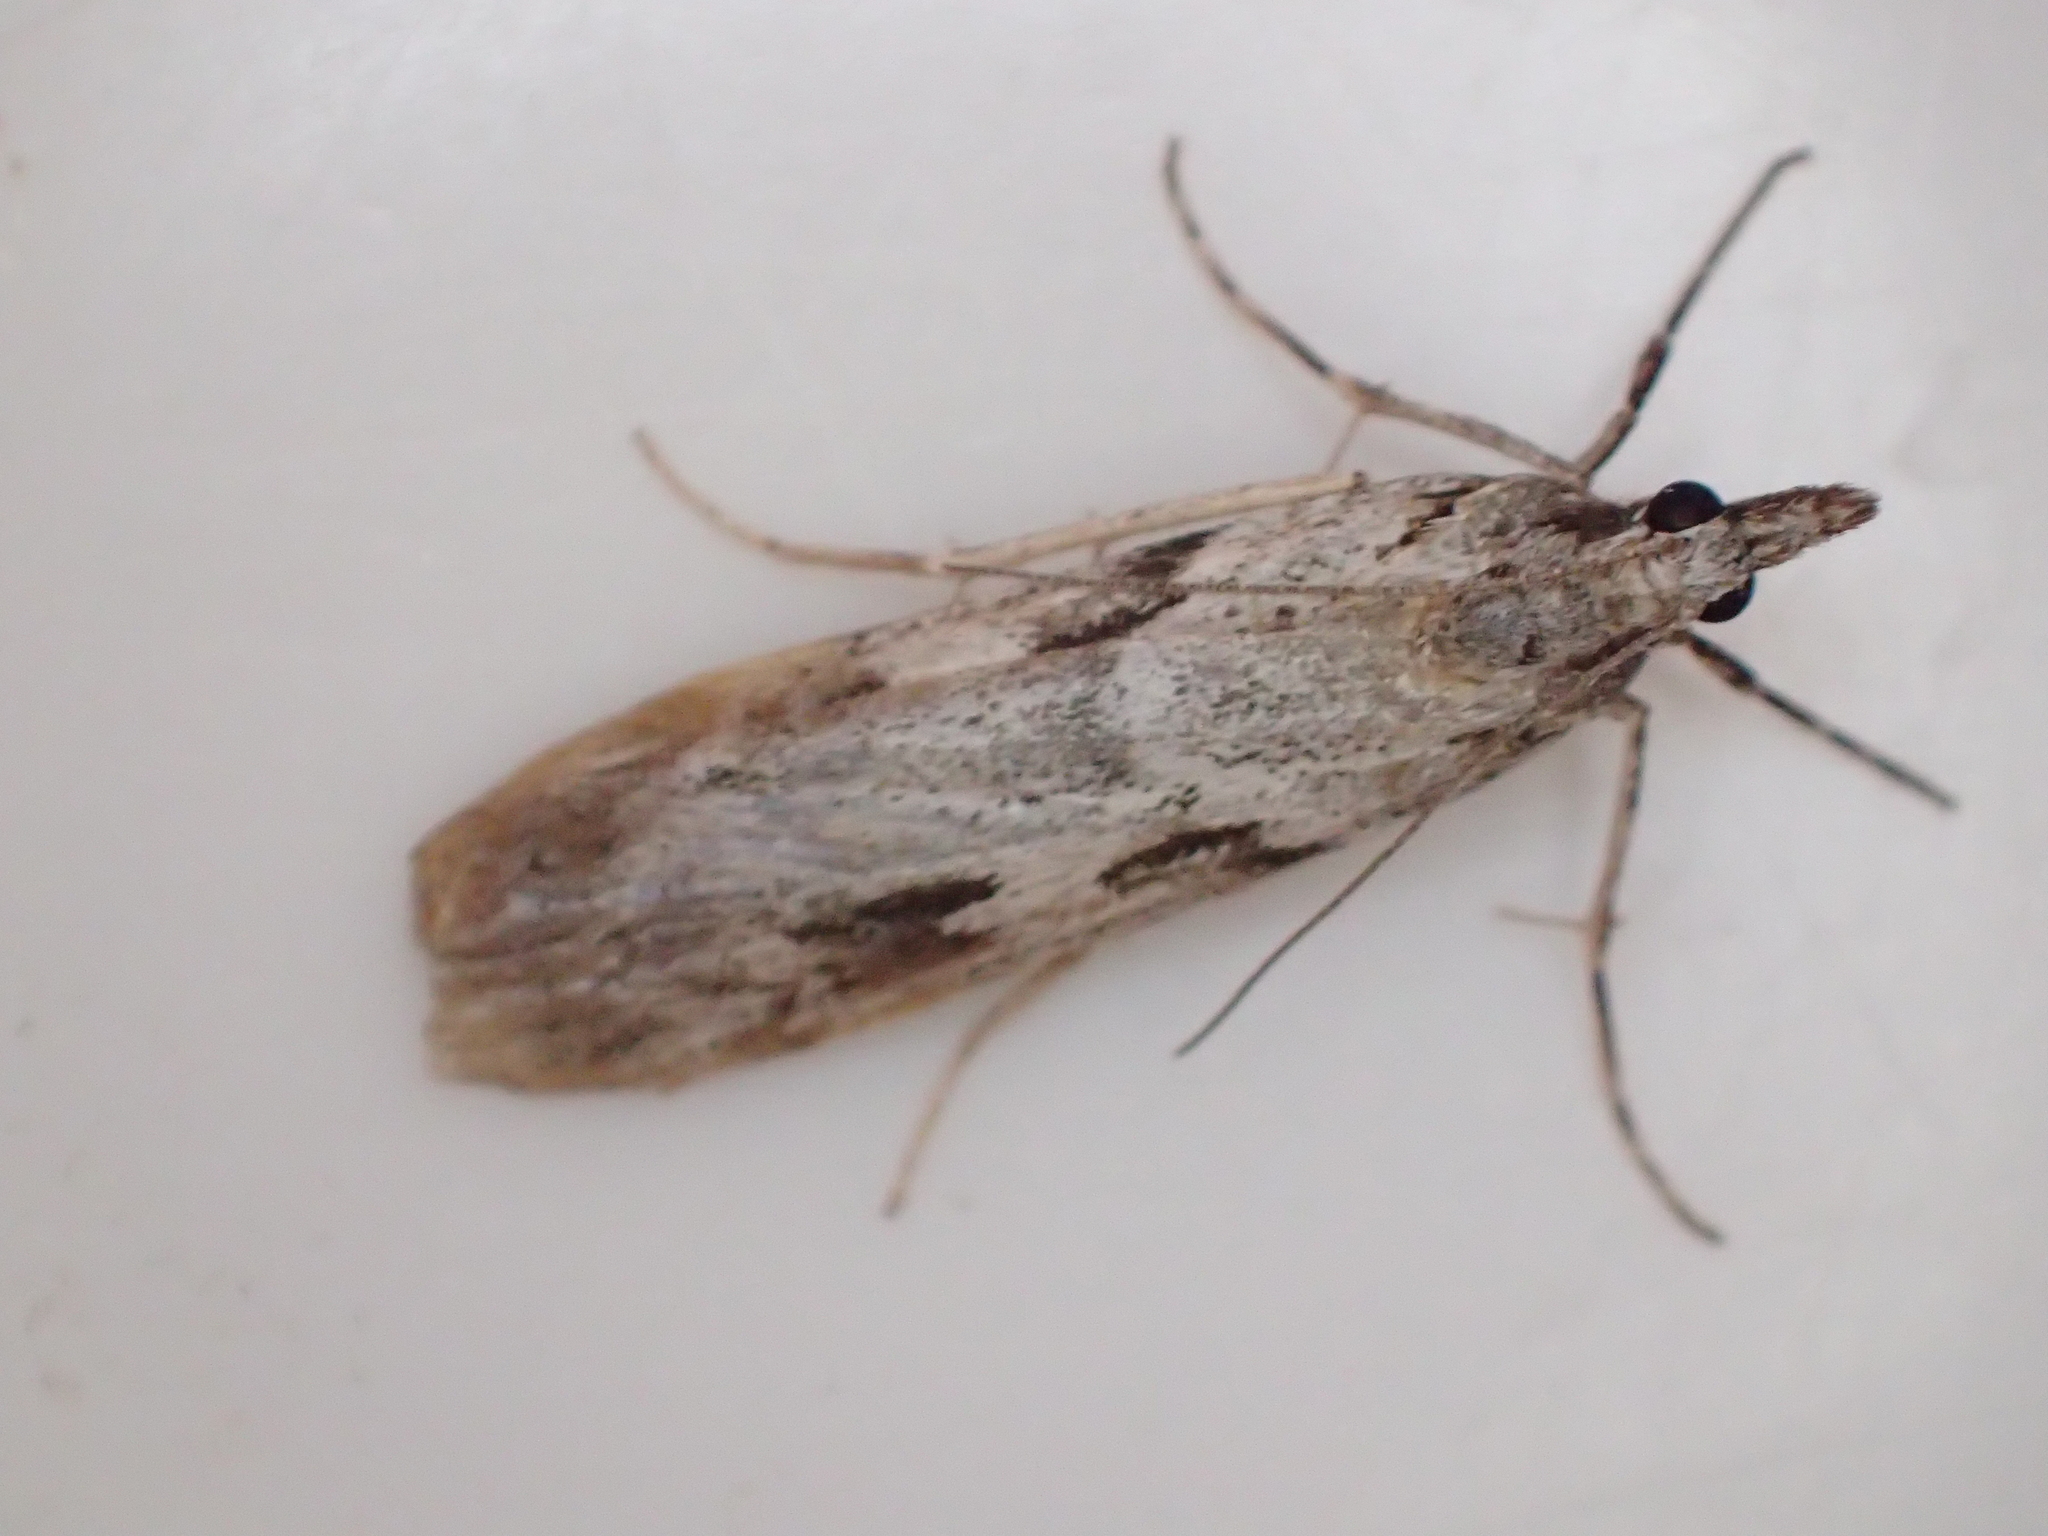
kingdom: Animalia
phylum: Arthropoda
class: Insecta
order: Lepidoptera
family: Crambidae
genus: Scoparia
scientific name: Scoparia halopis
